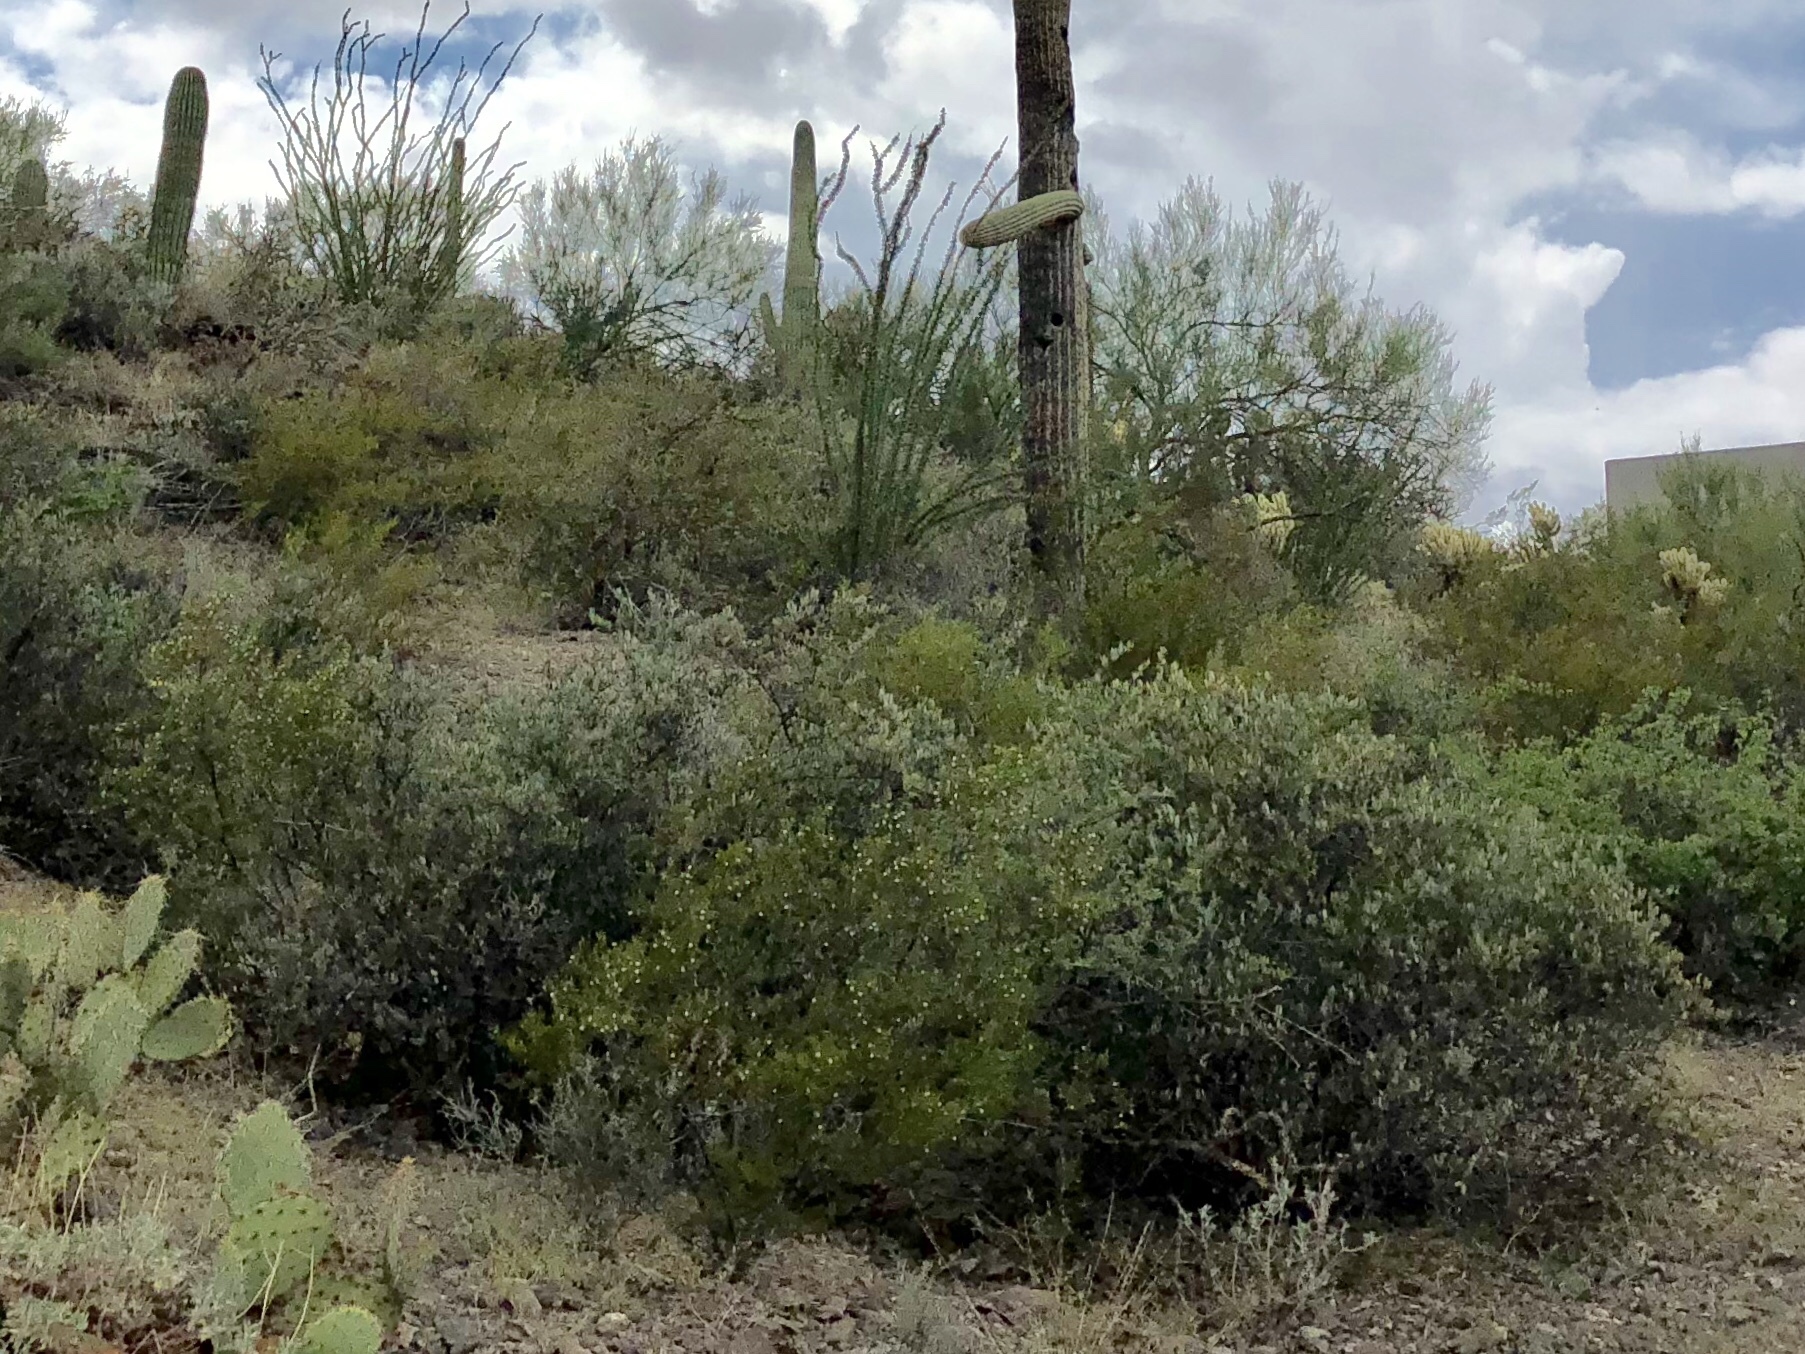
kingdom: Plantae
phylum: Tracheophyta
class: Magnoliopsida
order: Caryophyllales
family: Simmondsiaceae
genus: Simmondsia
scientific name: Simmondsia chinensis
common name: Jojoba
